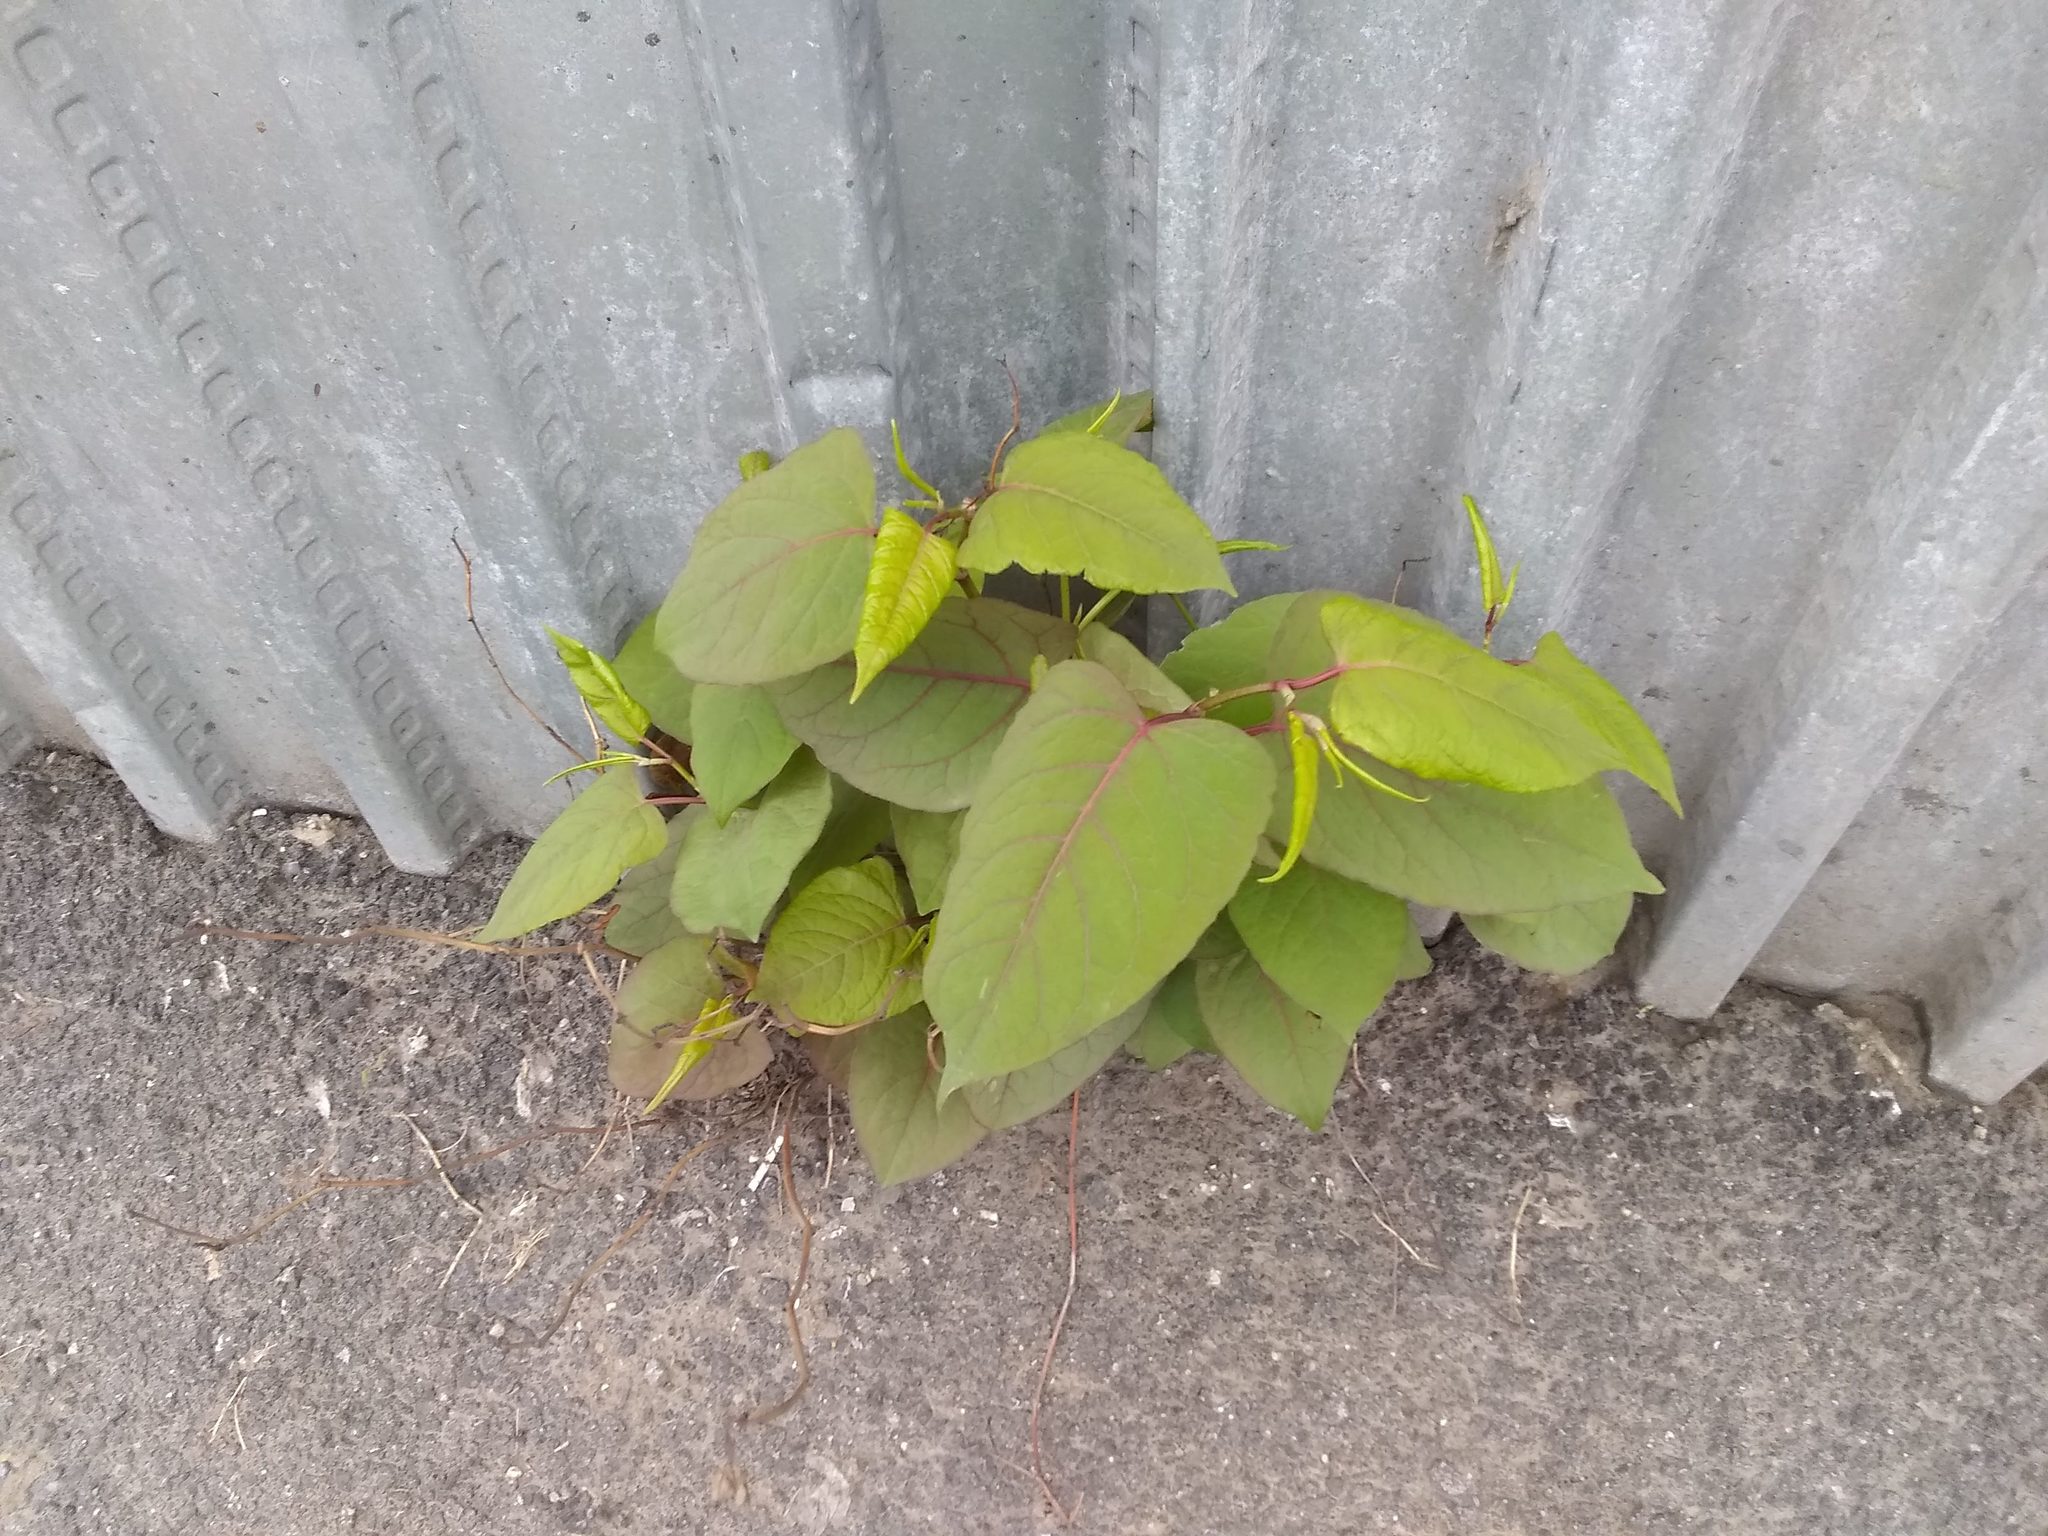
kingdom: Plantae
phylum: Tracheophyta
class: Magnoliopsida
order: Caryophyllales
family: Polygonaceae
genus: Reynoutria
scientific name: Reynoutria japonica
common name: Japanese knotweed
